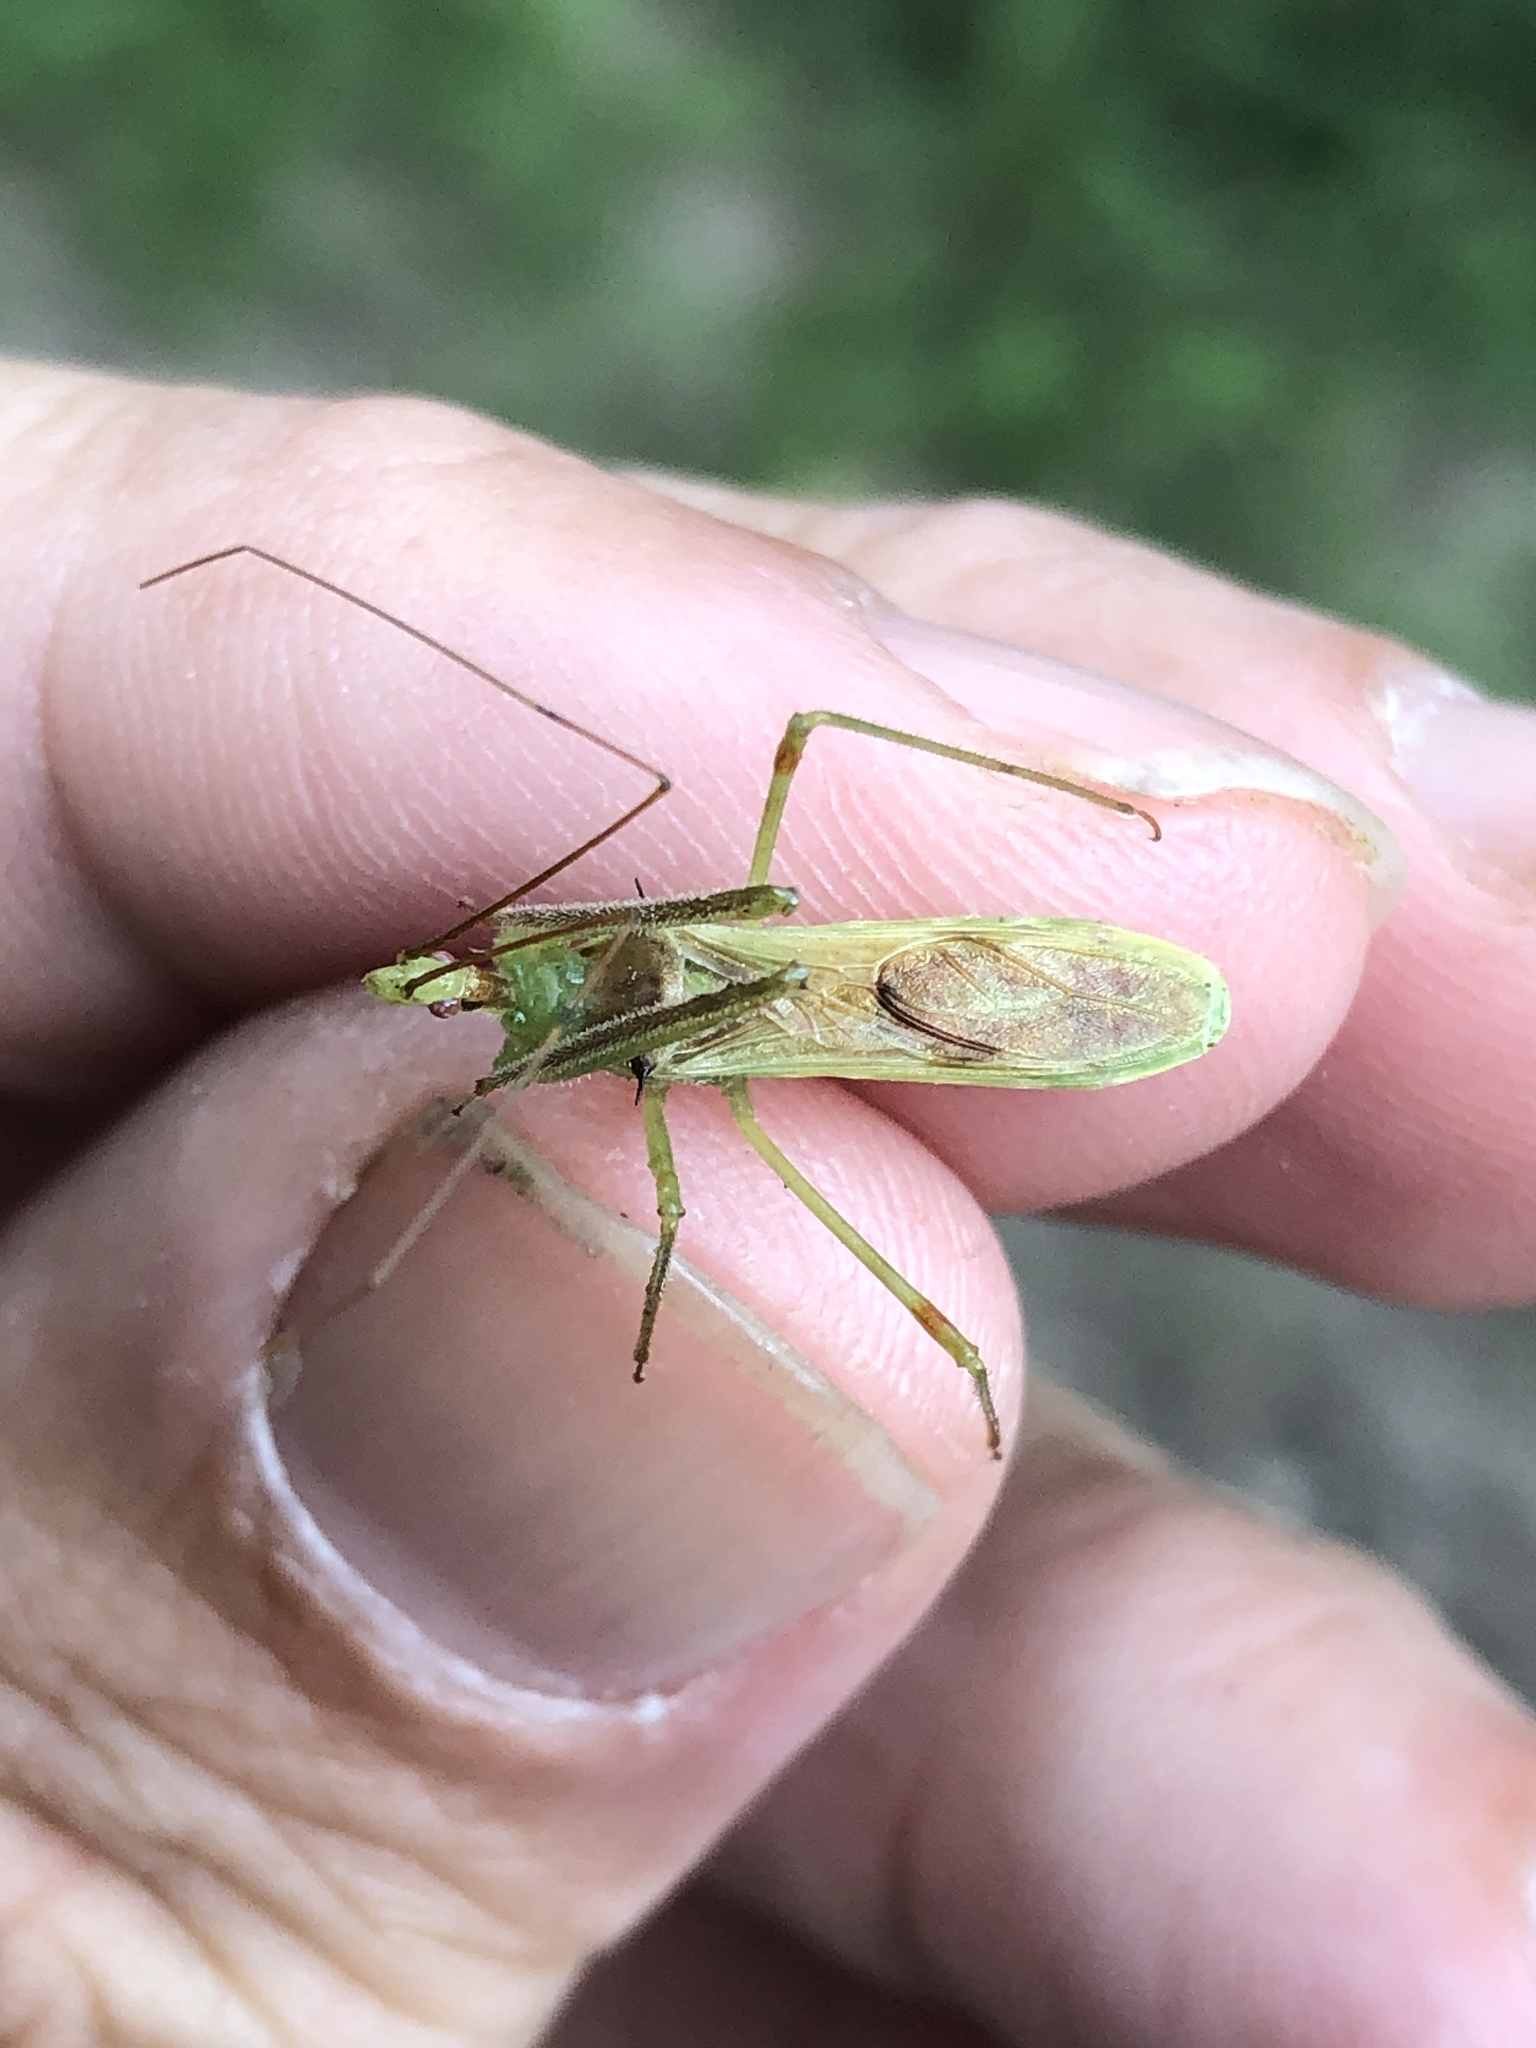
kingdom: Animalia
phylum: Arthropoda
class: Insecta
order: Hemiptera
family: Reduviidae
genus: Zelus
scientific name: Zelus luridus
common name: Pale green assassin bug
